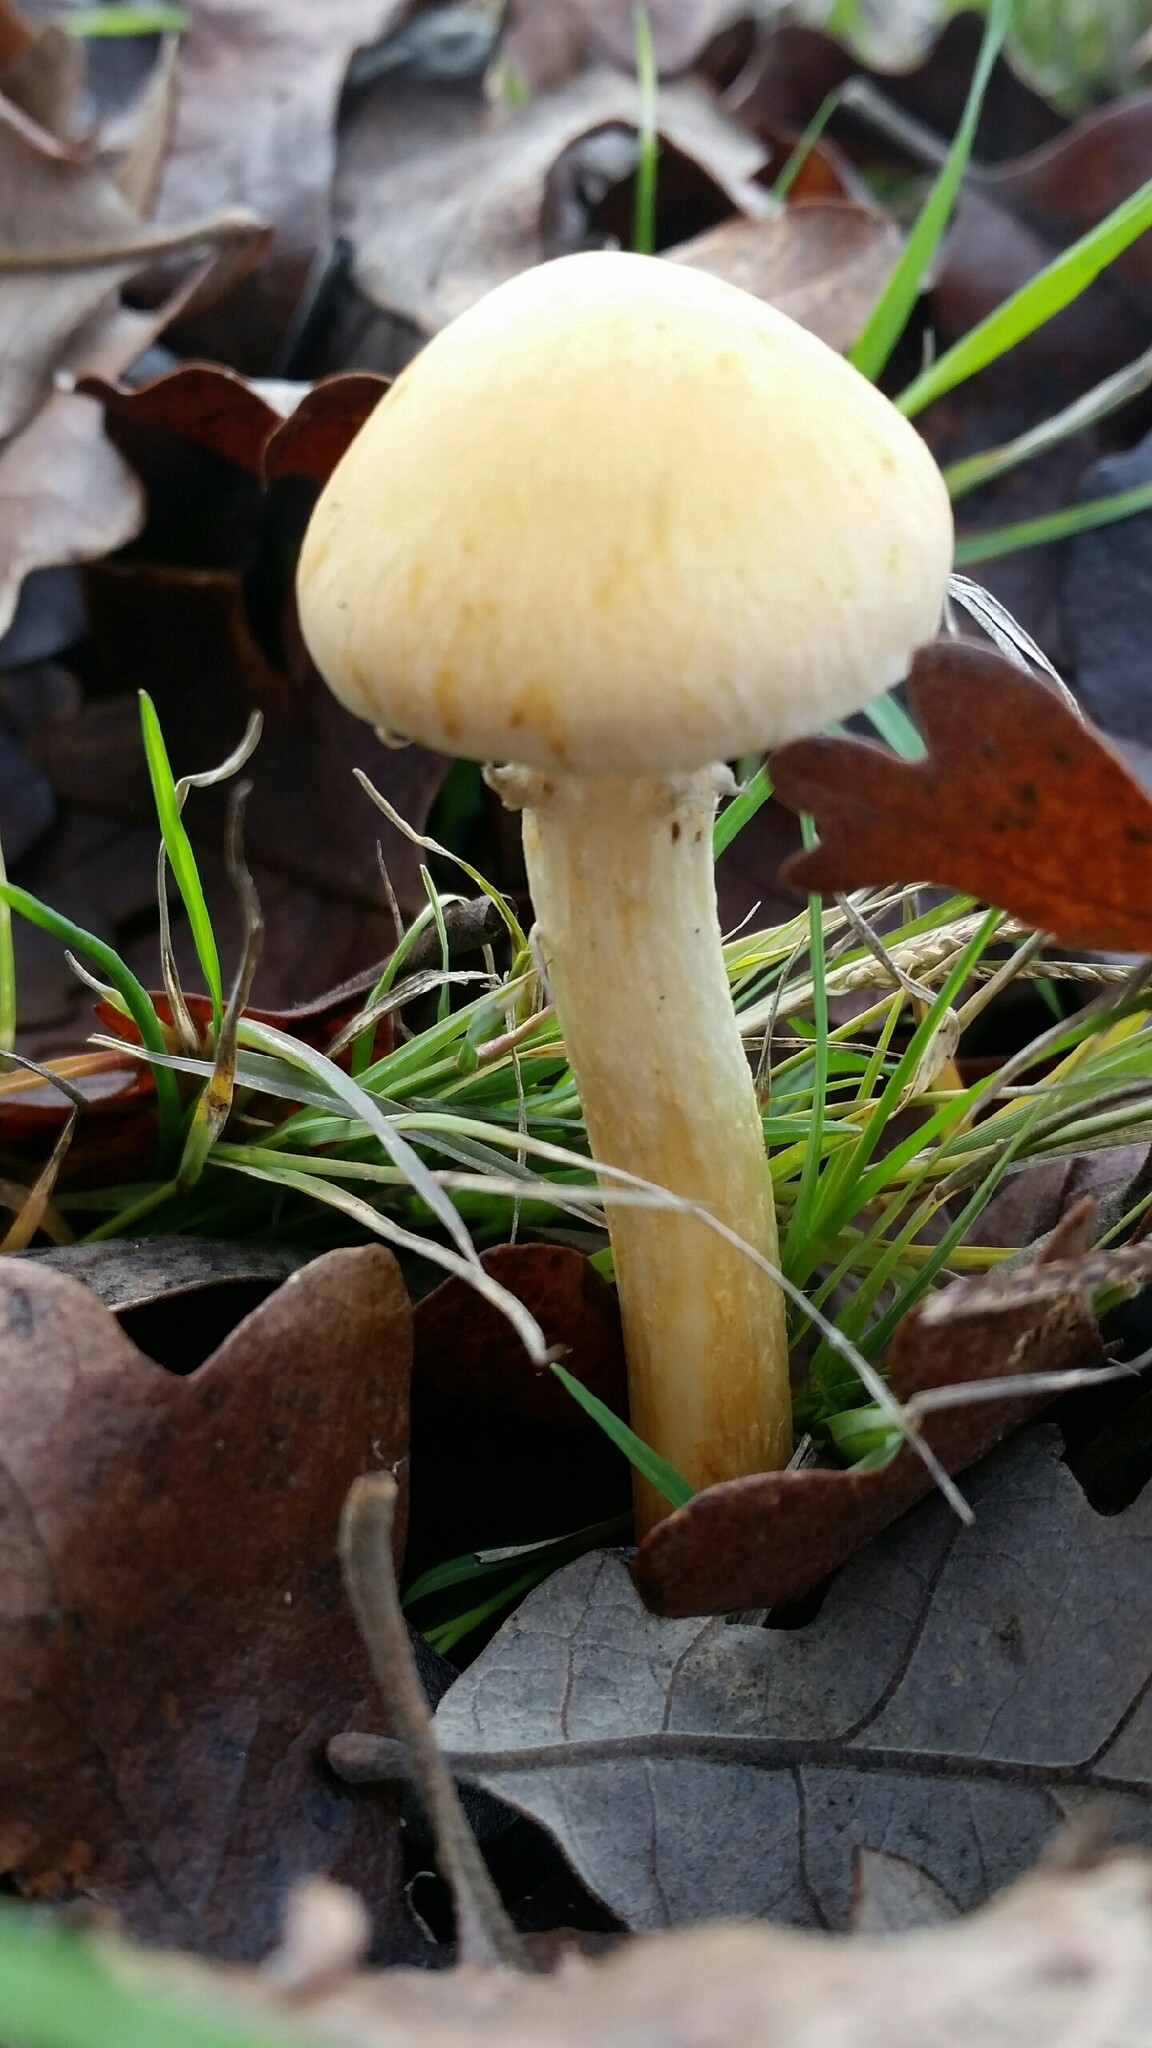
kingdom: Fungi
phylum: Basidiomycota
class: Agaricomycetes
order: Agaricales
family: Strophariaceae
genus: Leratiomyces
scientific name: Leratiomyces percevalii
